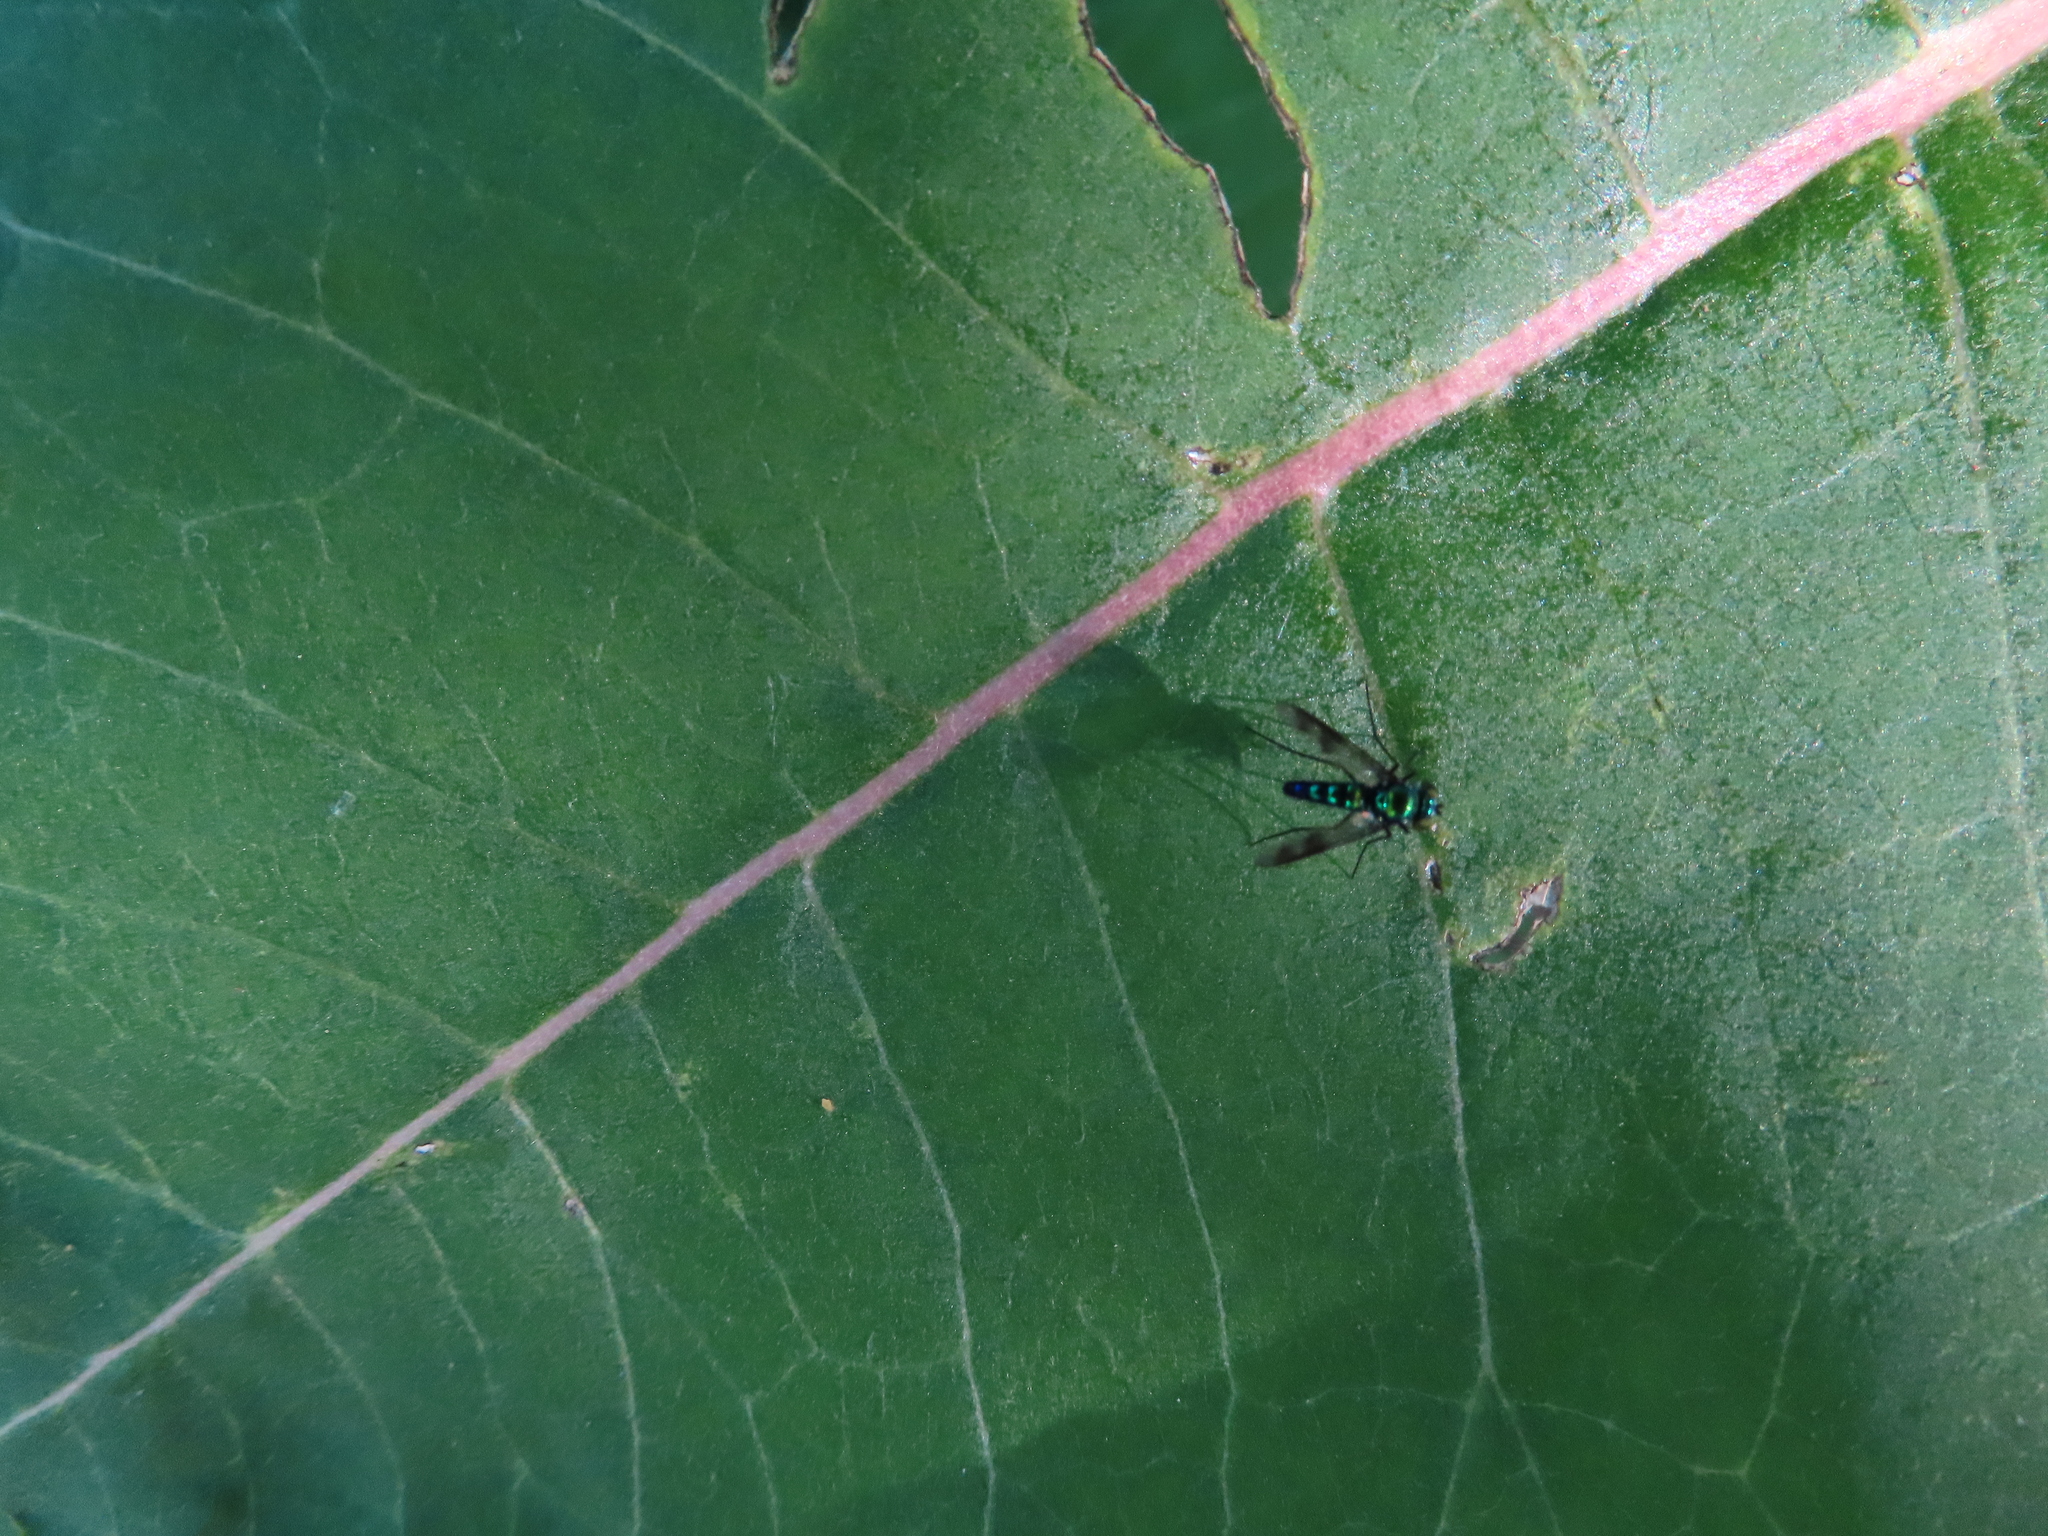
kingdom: Animalia
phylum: Arthropoda
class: Insecta
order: Diptera
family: Dolichopodidae
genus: Condylostylus
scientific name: Condylostylus patibulatus
